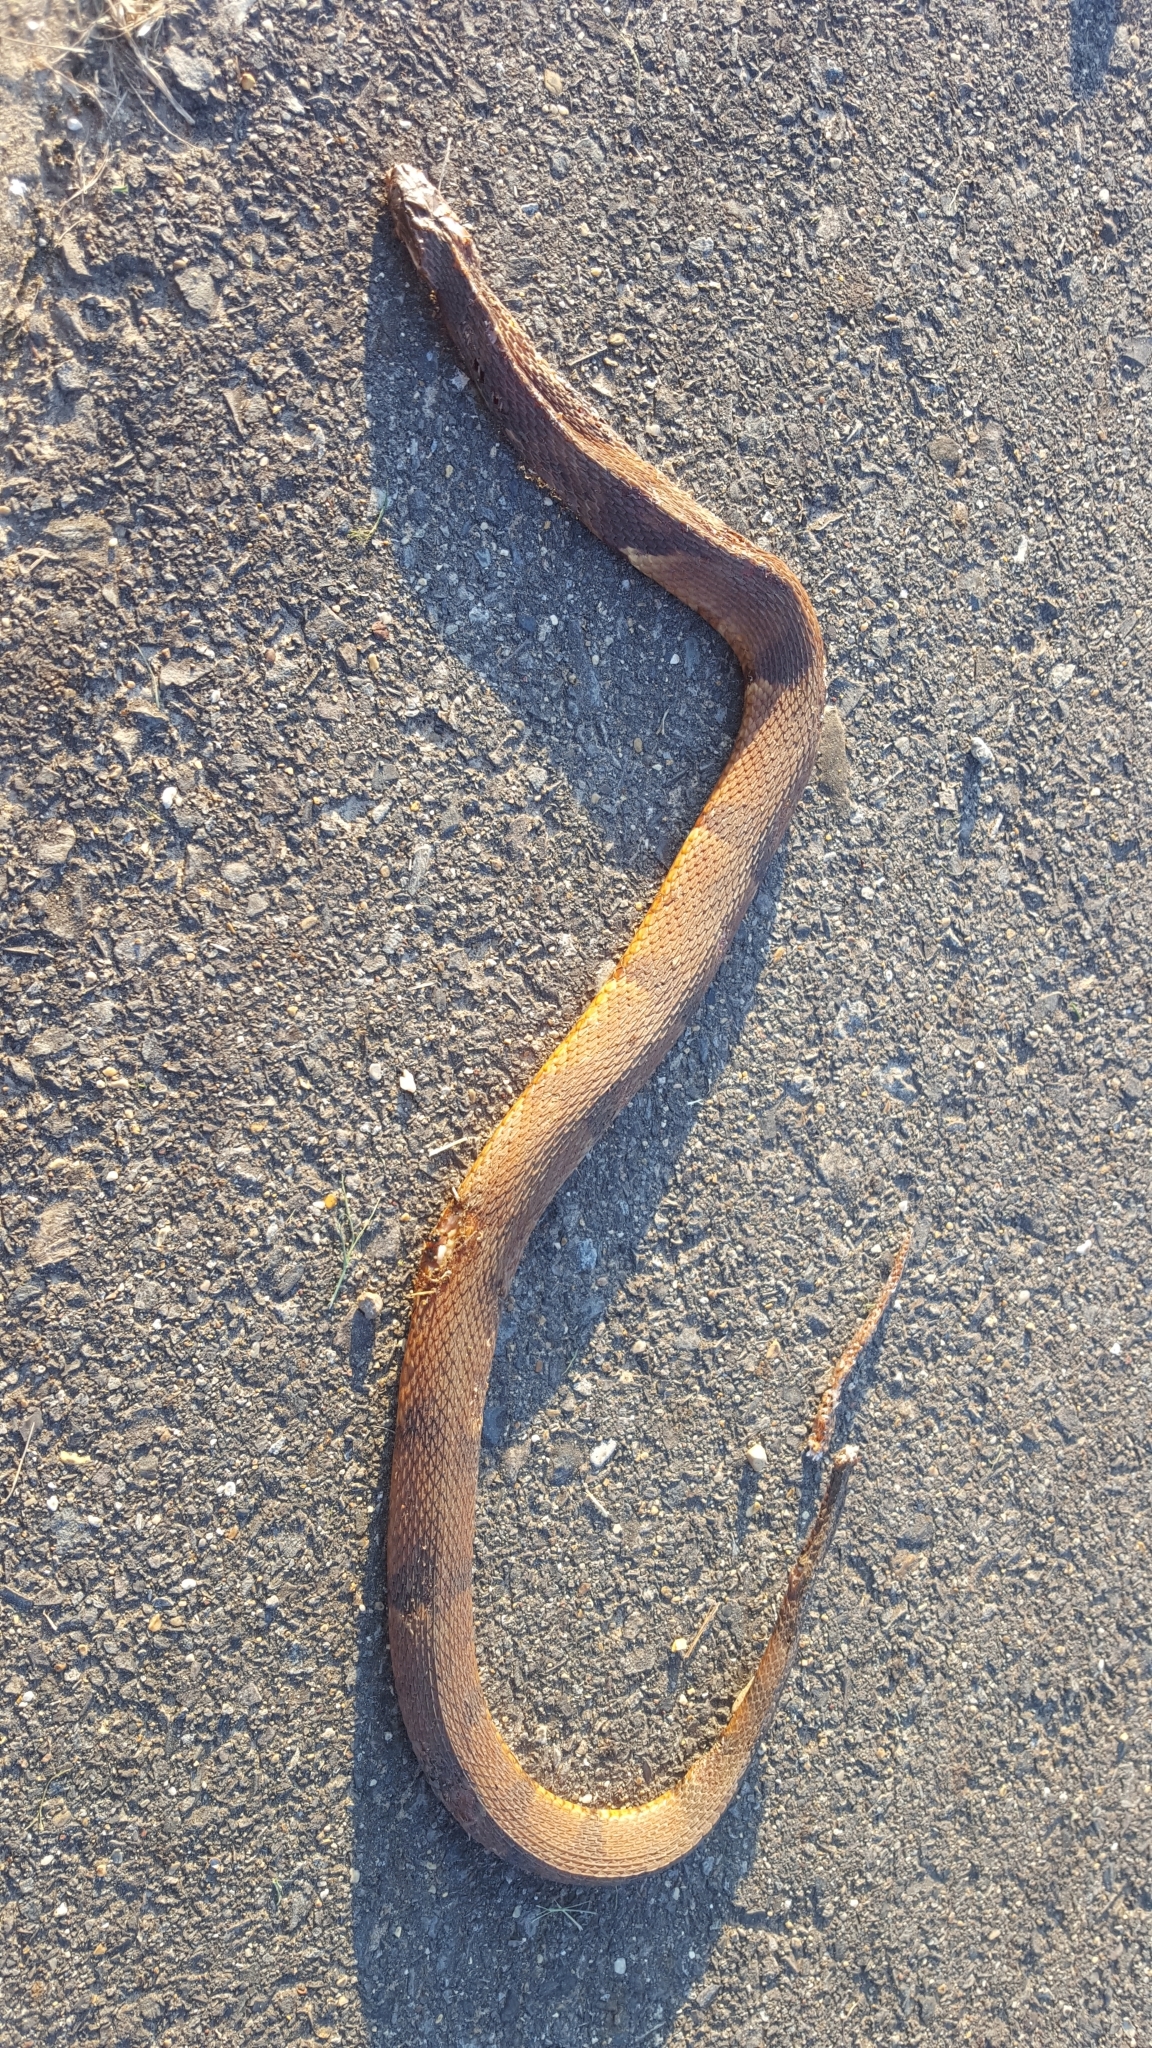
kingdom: Animalia
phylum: Chordata
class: Squamata
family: Colubridae
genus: Nerodia
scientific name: Nerodia fasciata
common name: Southern water snake
